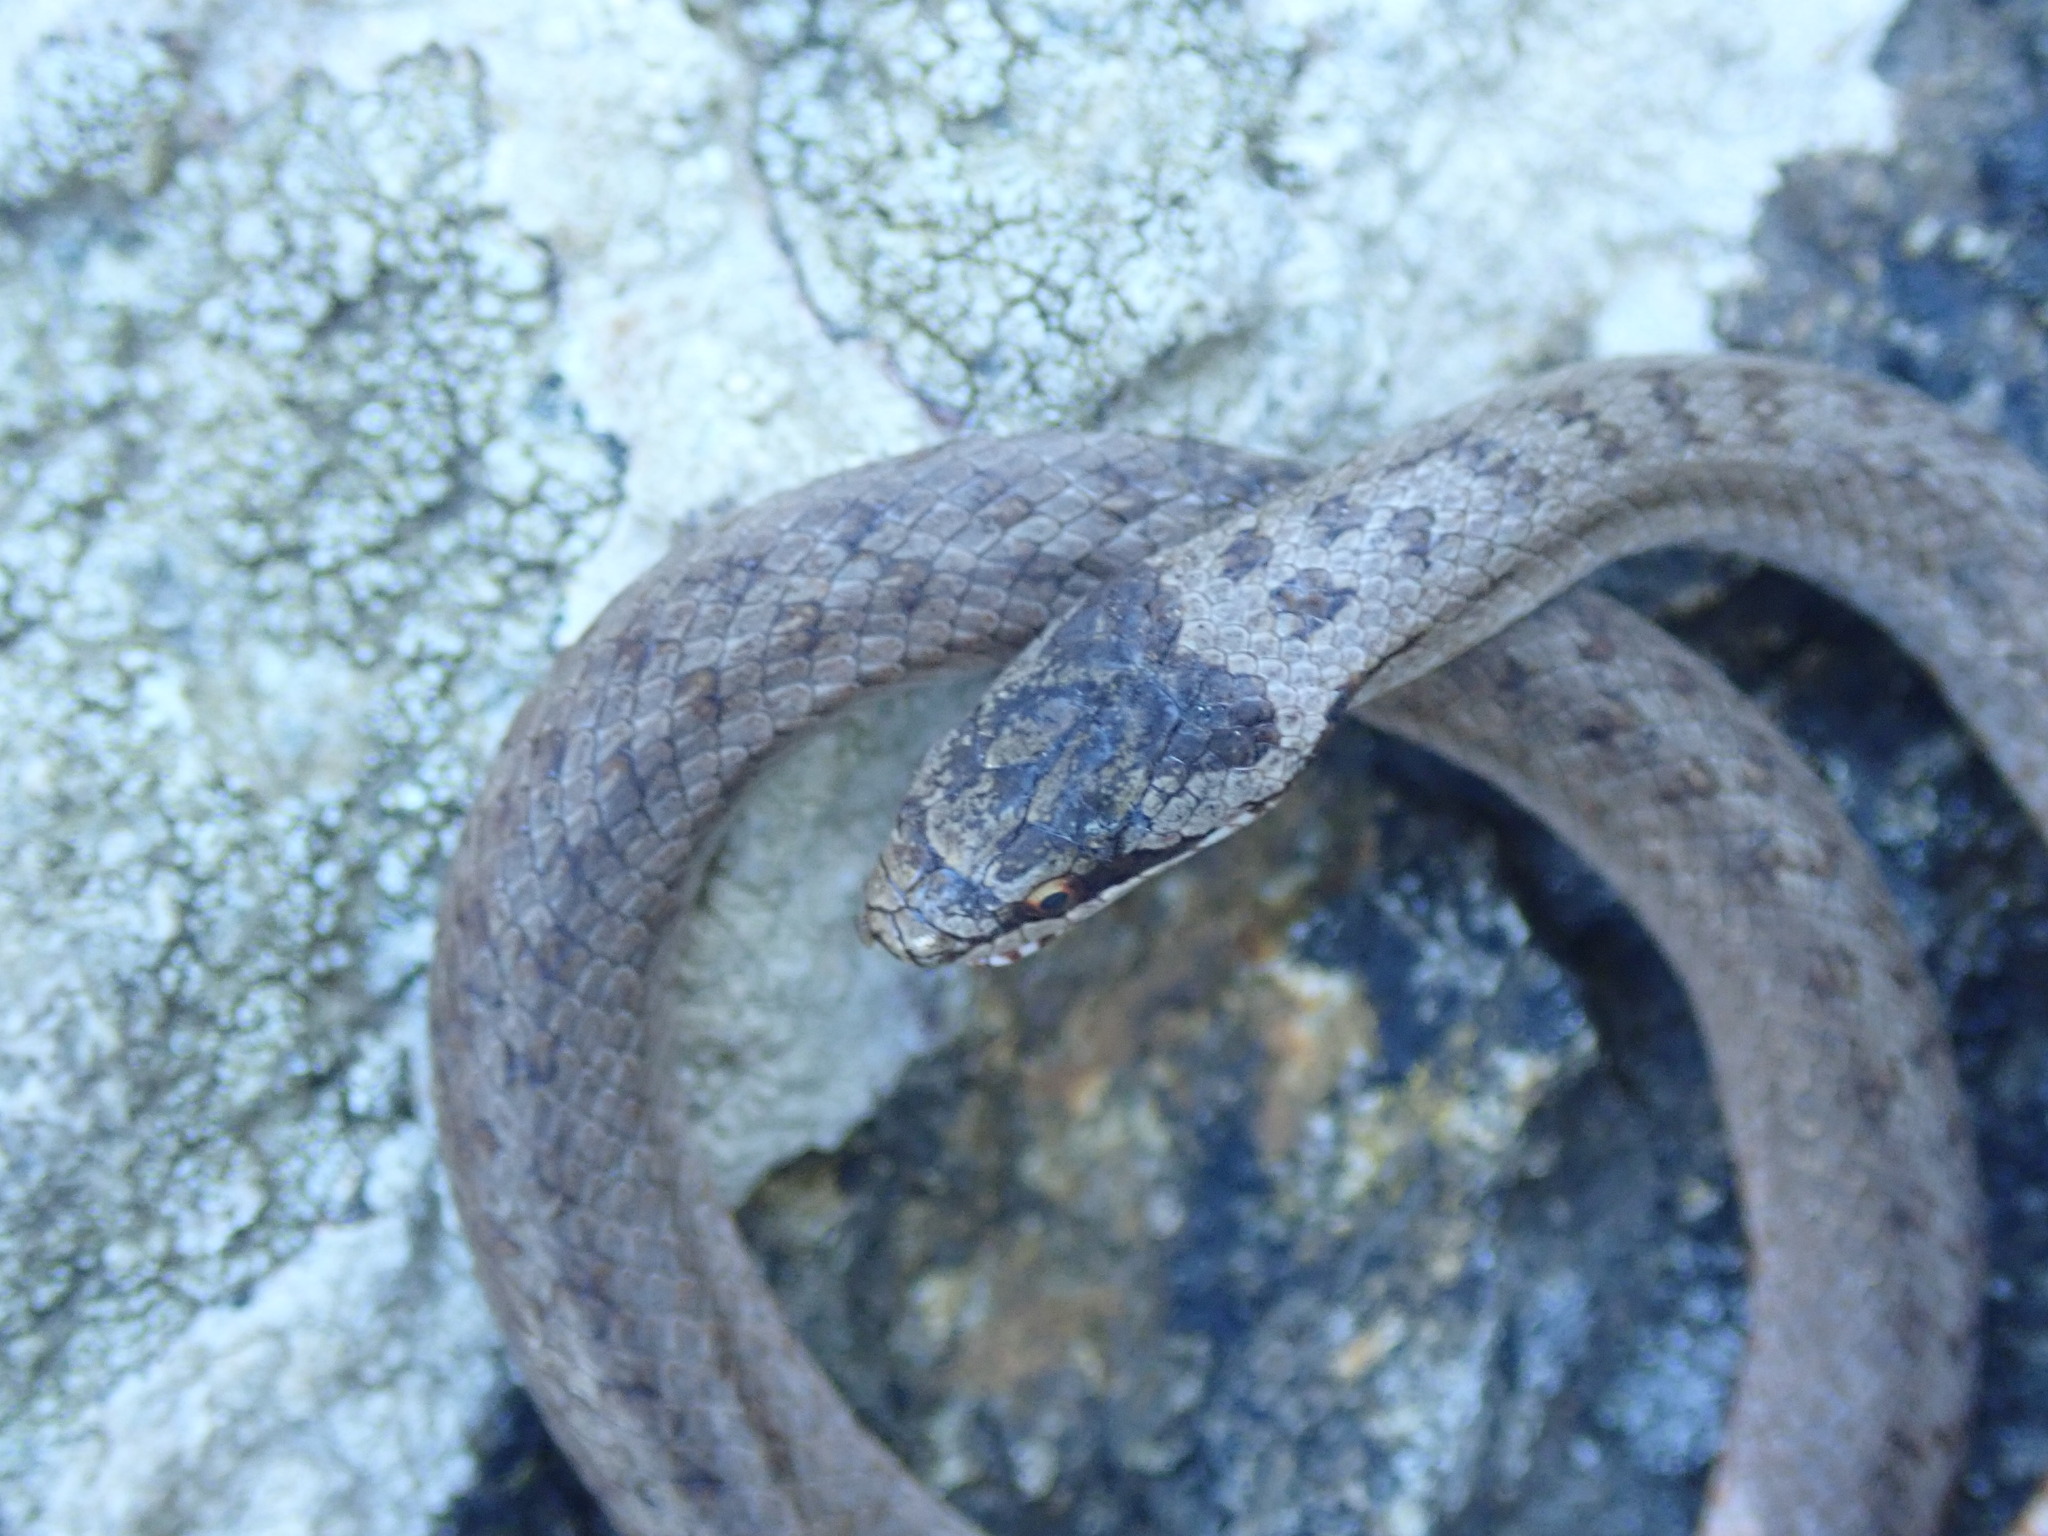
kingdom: Animalia
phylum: Chordata
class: Squamata
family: Colubridae
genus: Coronella
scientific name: Coronella austriaca
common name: Smooth snake
